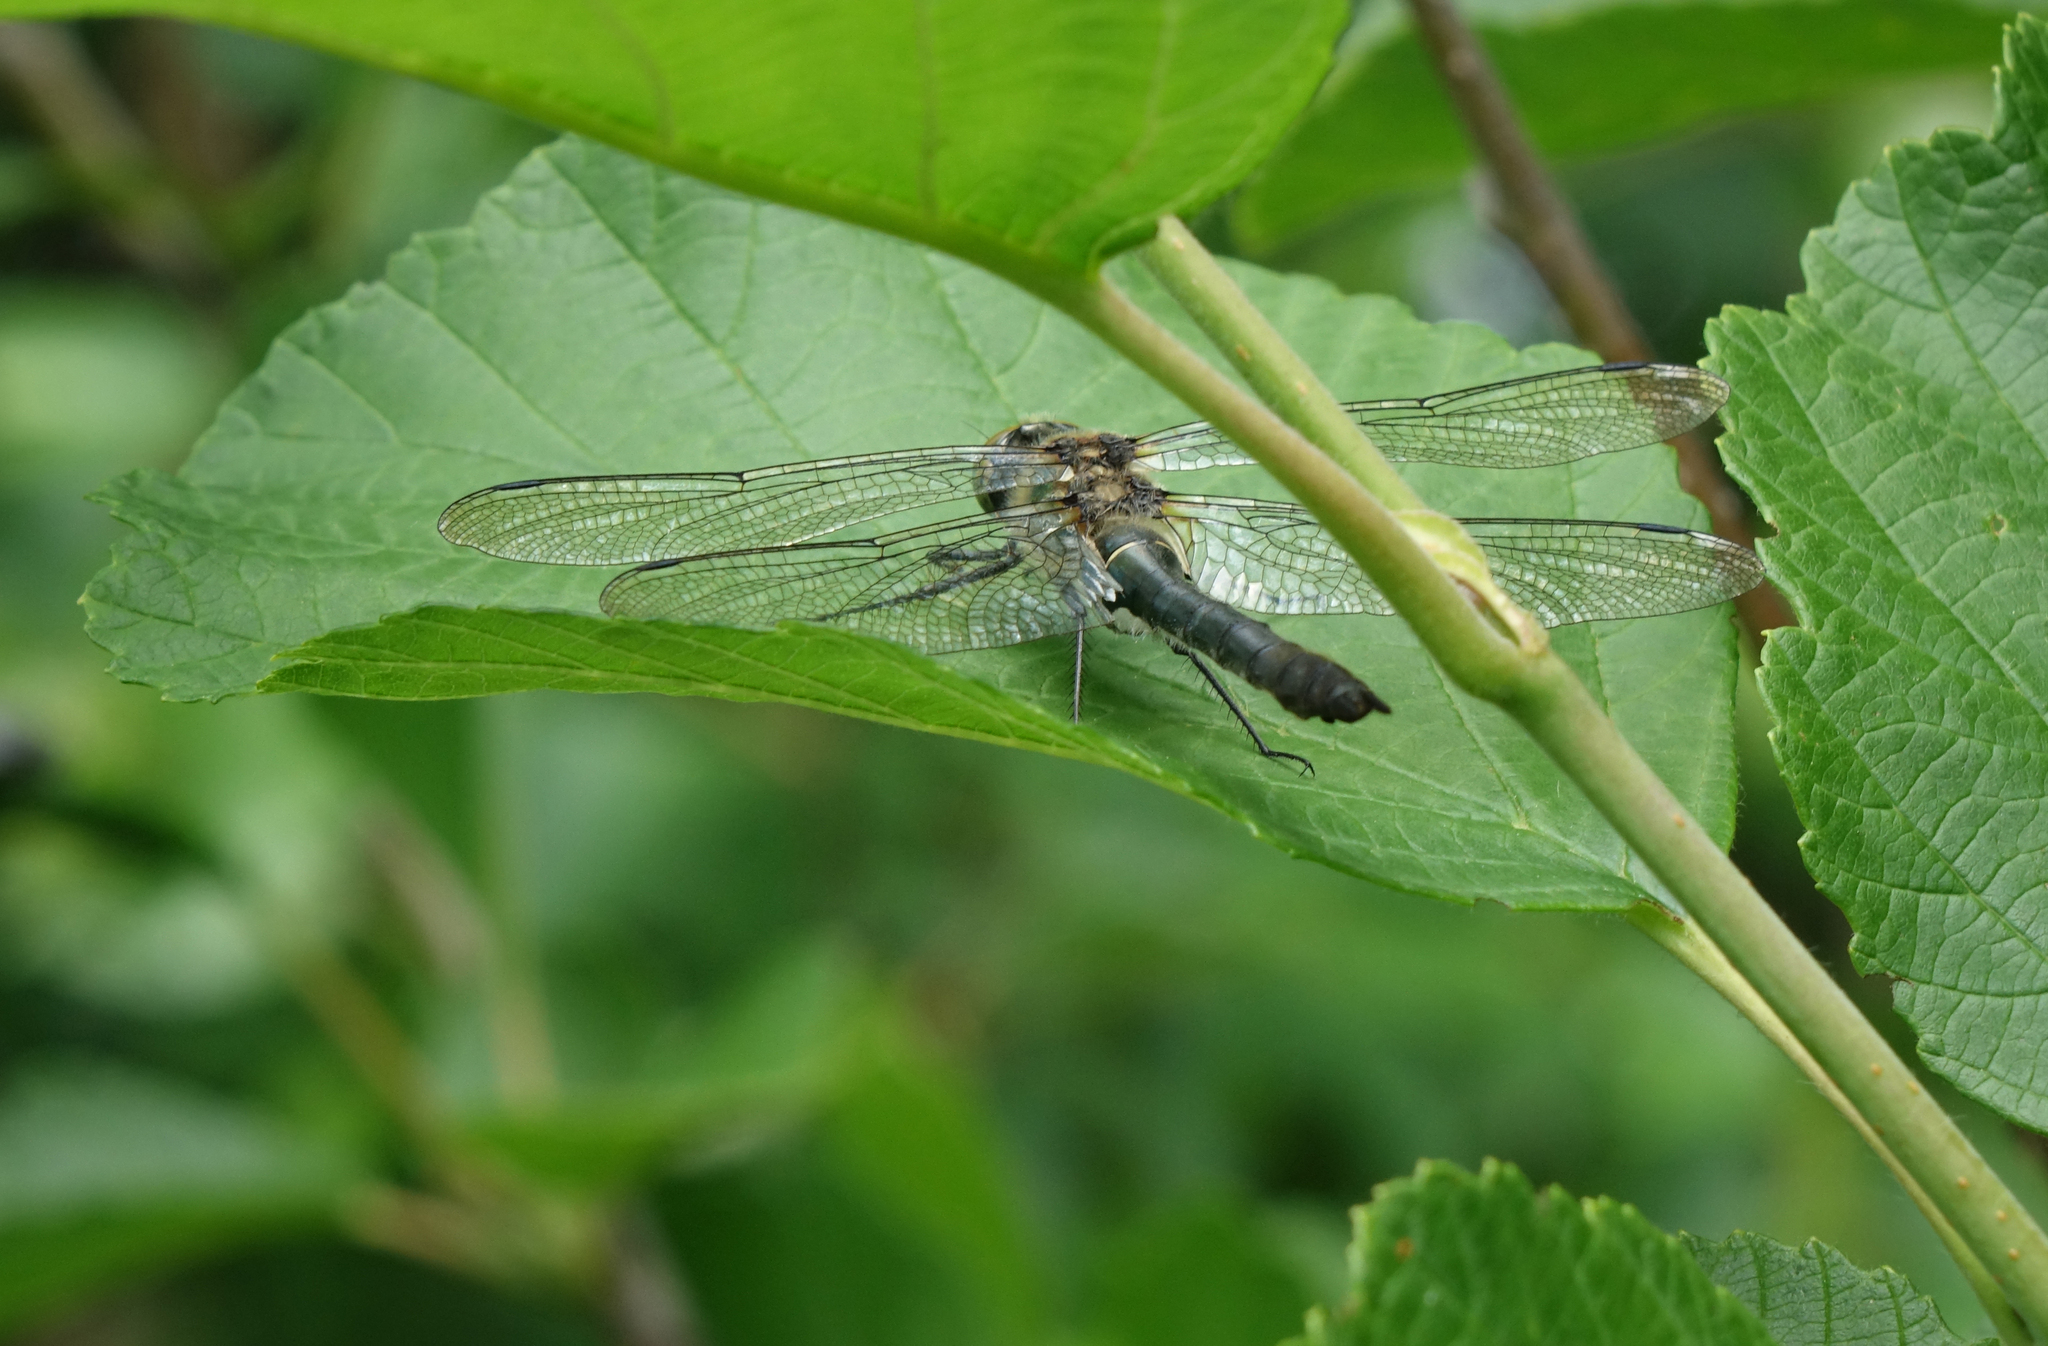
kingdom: Plantae
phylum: Tracheophyta
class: Magnoliopsida
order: Fagales
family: Betulaceae
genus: Alnus
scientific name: Alnus hirsuta
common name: Manchurian alder
